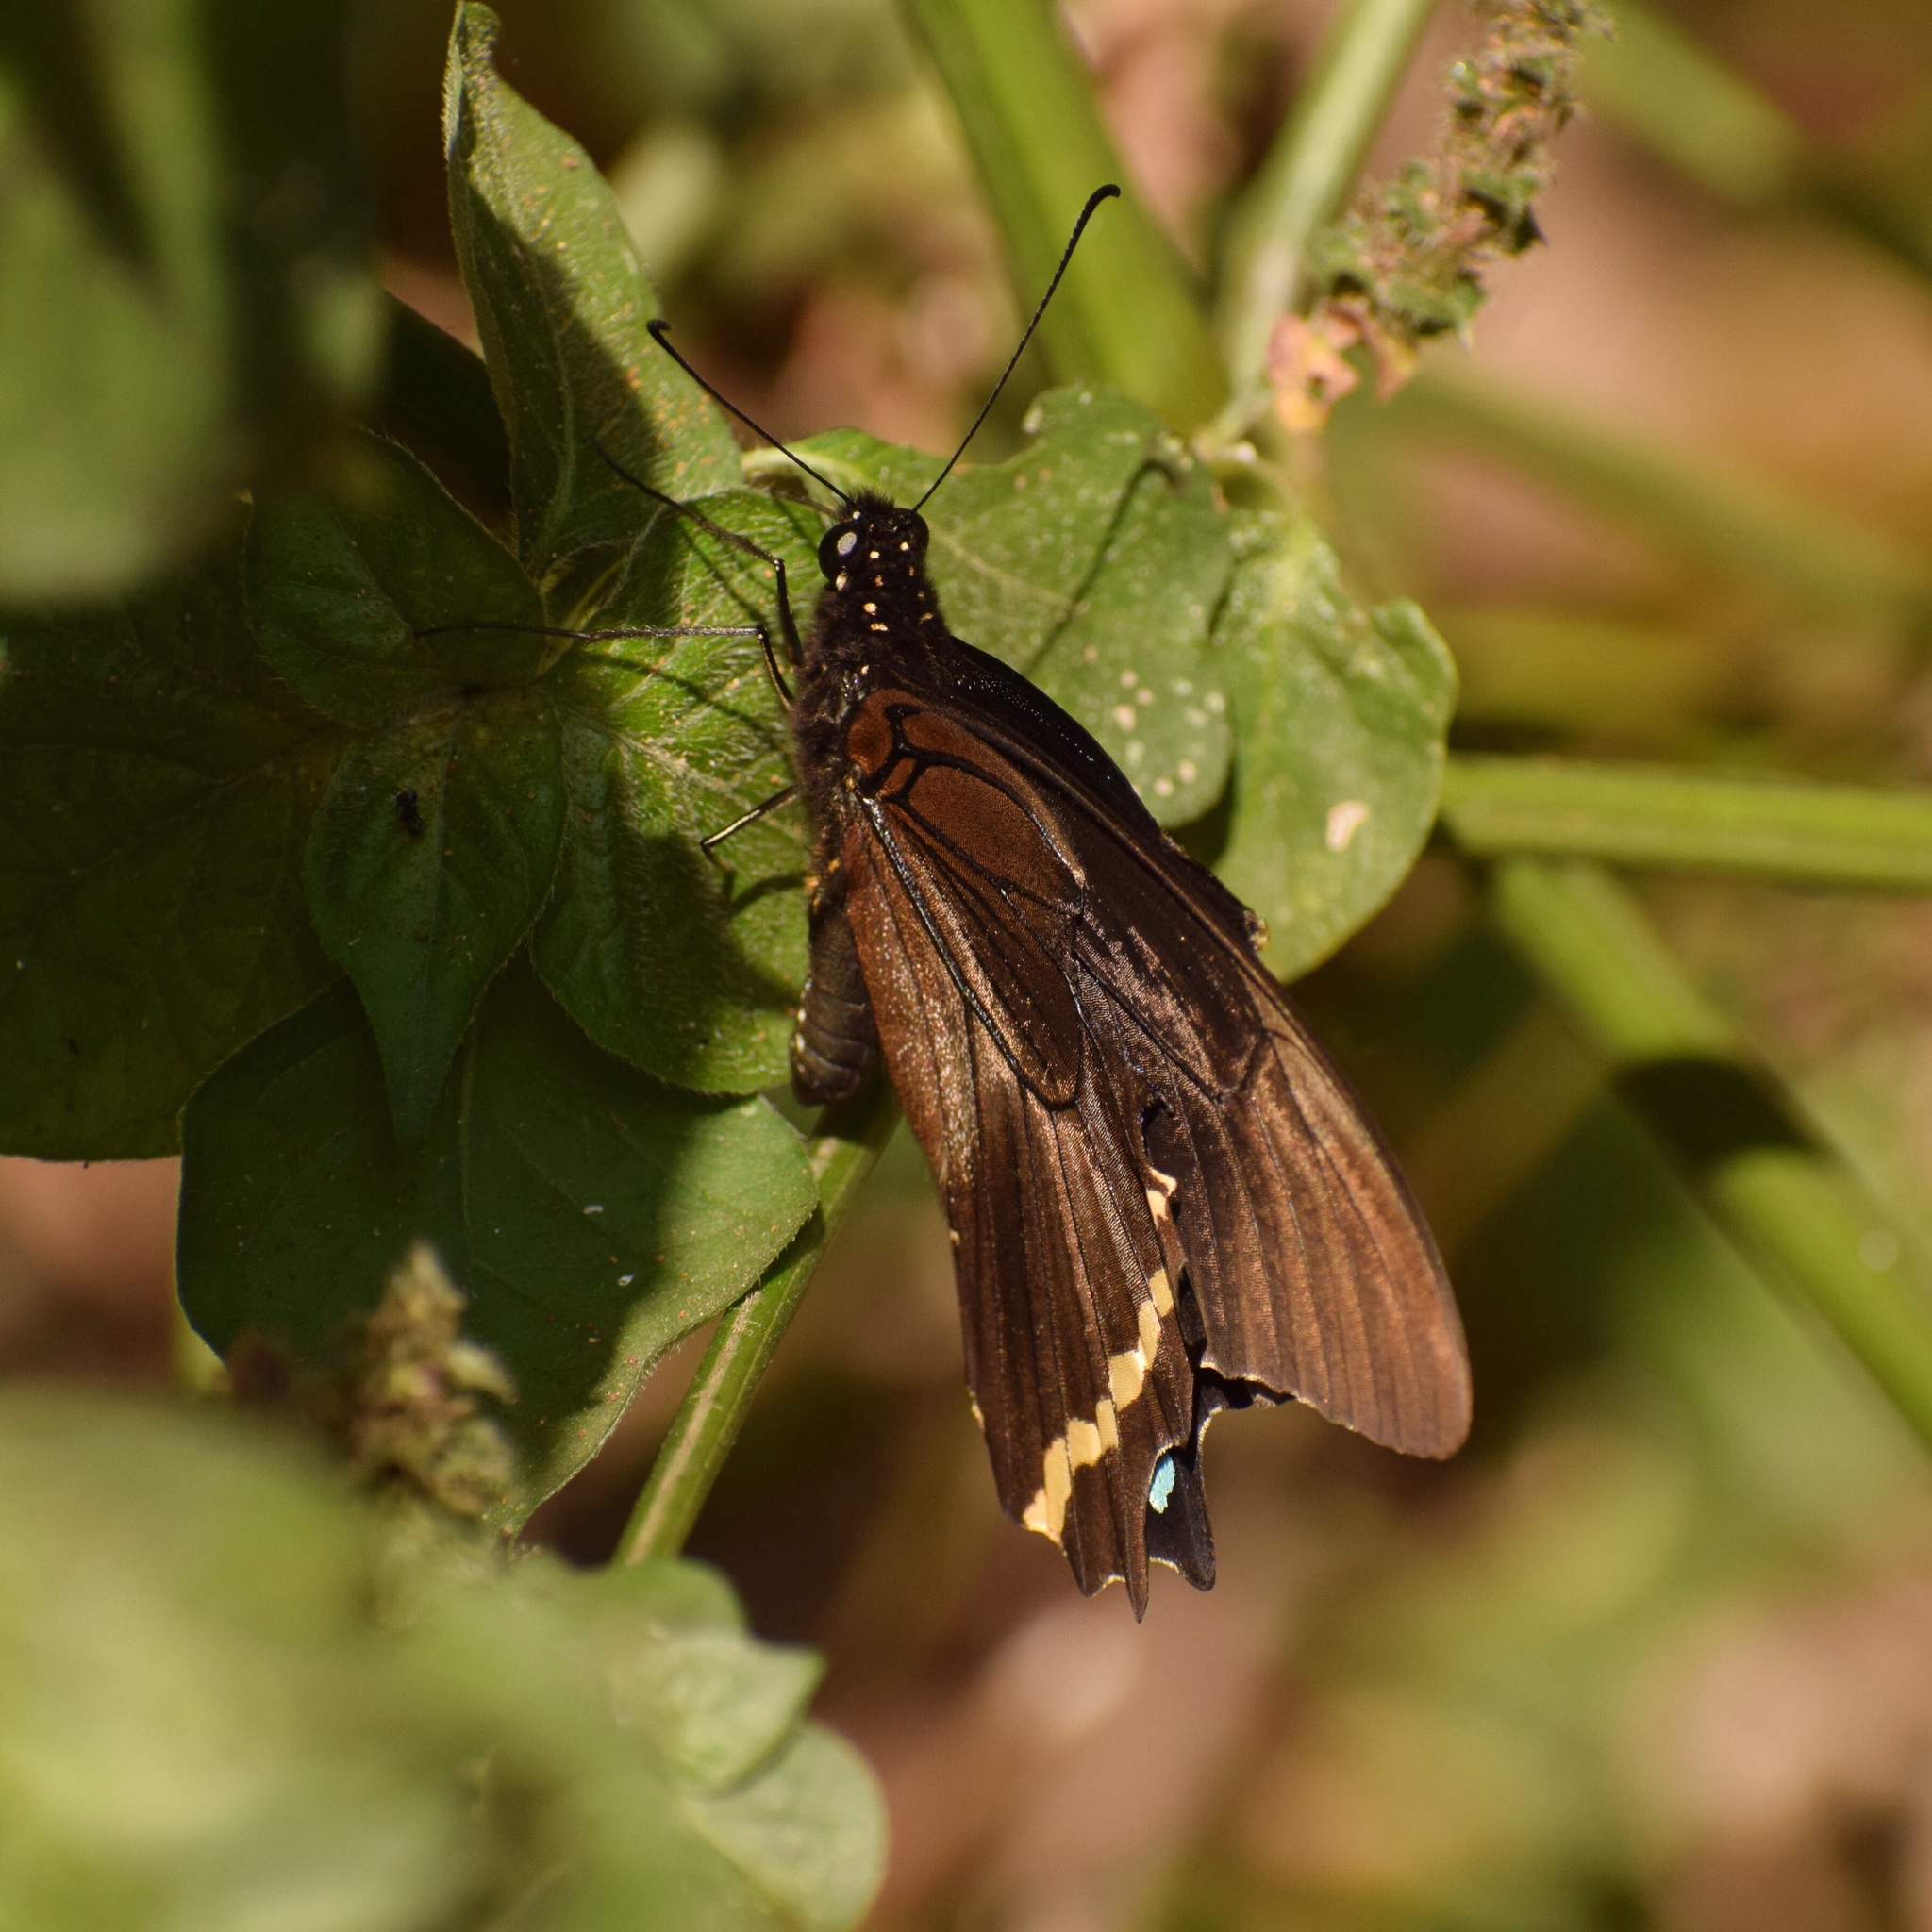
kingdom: Animalia
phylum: Arthropoda
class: Insecta
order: Lepidoptera
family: Papilionidae
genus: Papilio
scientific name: Papilio nireus
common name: Greenbanded swallowtail
